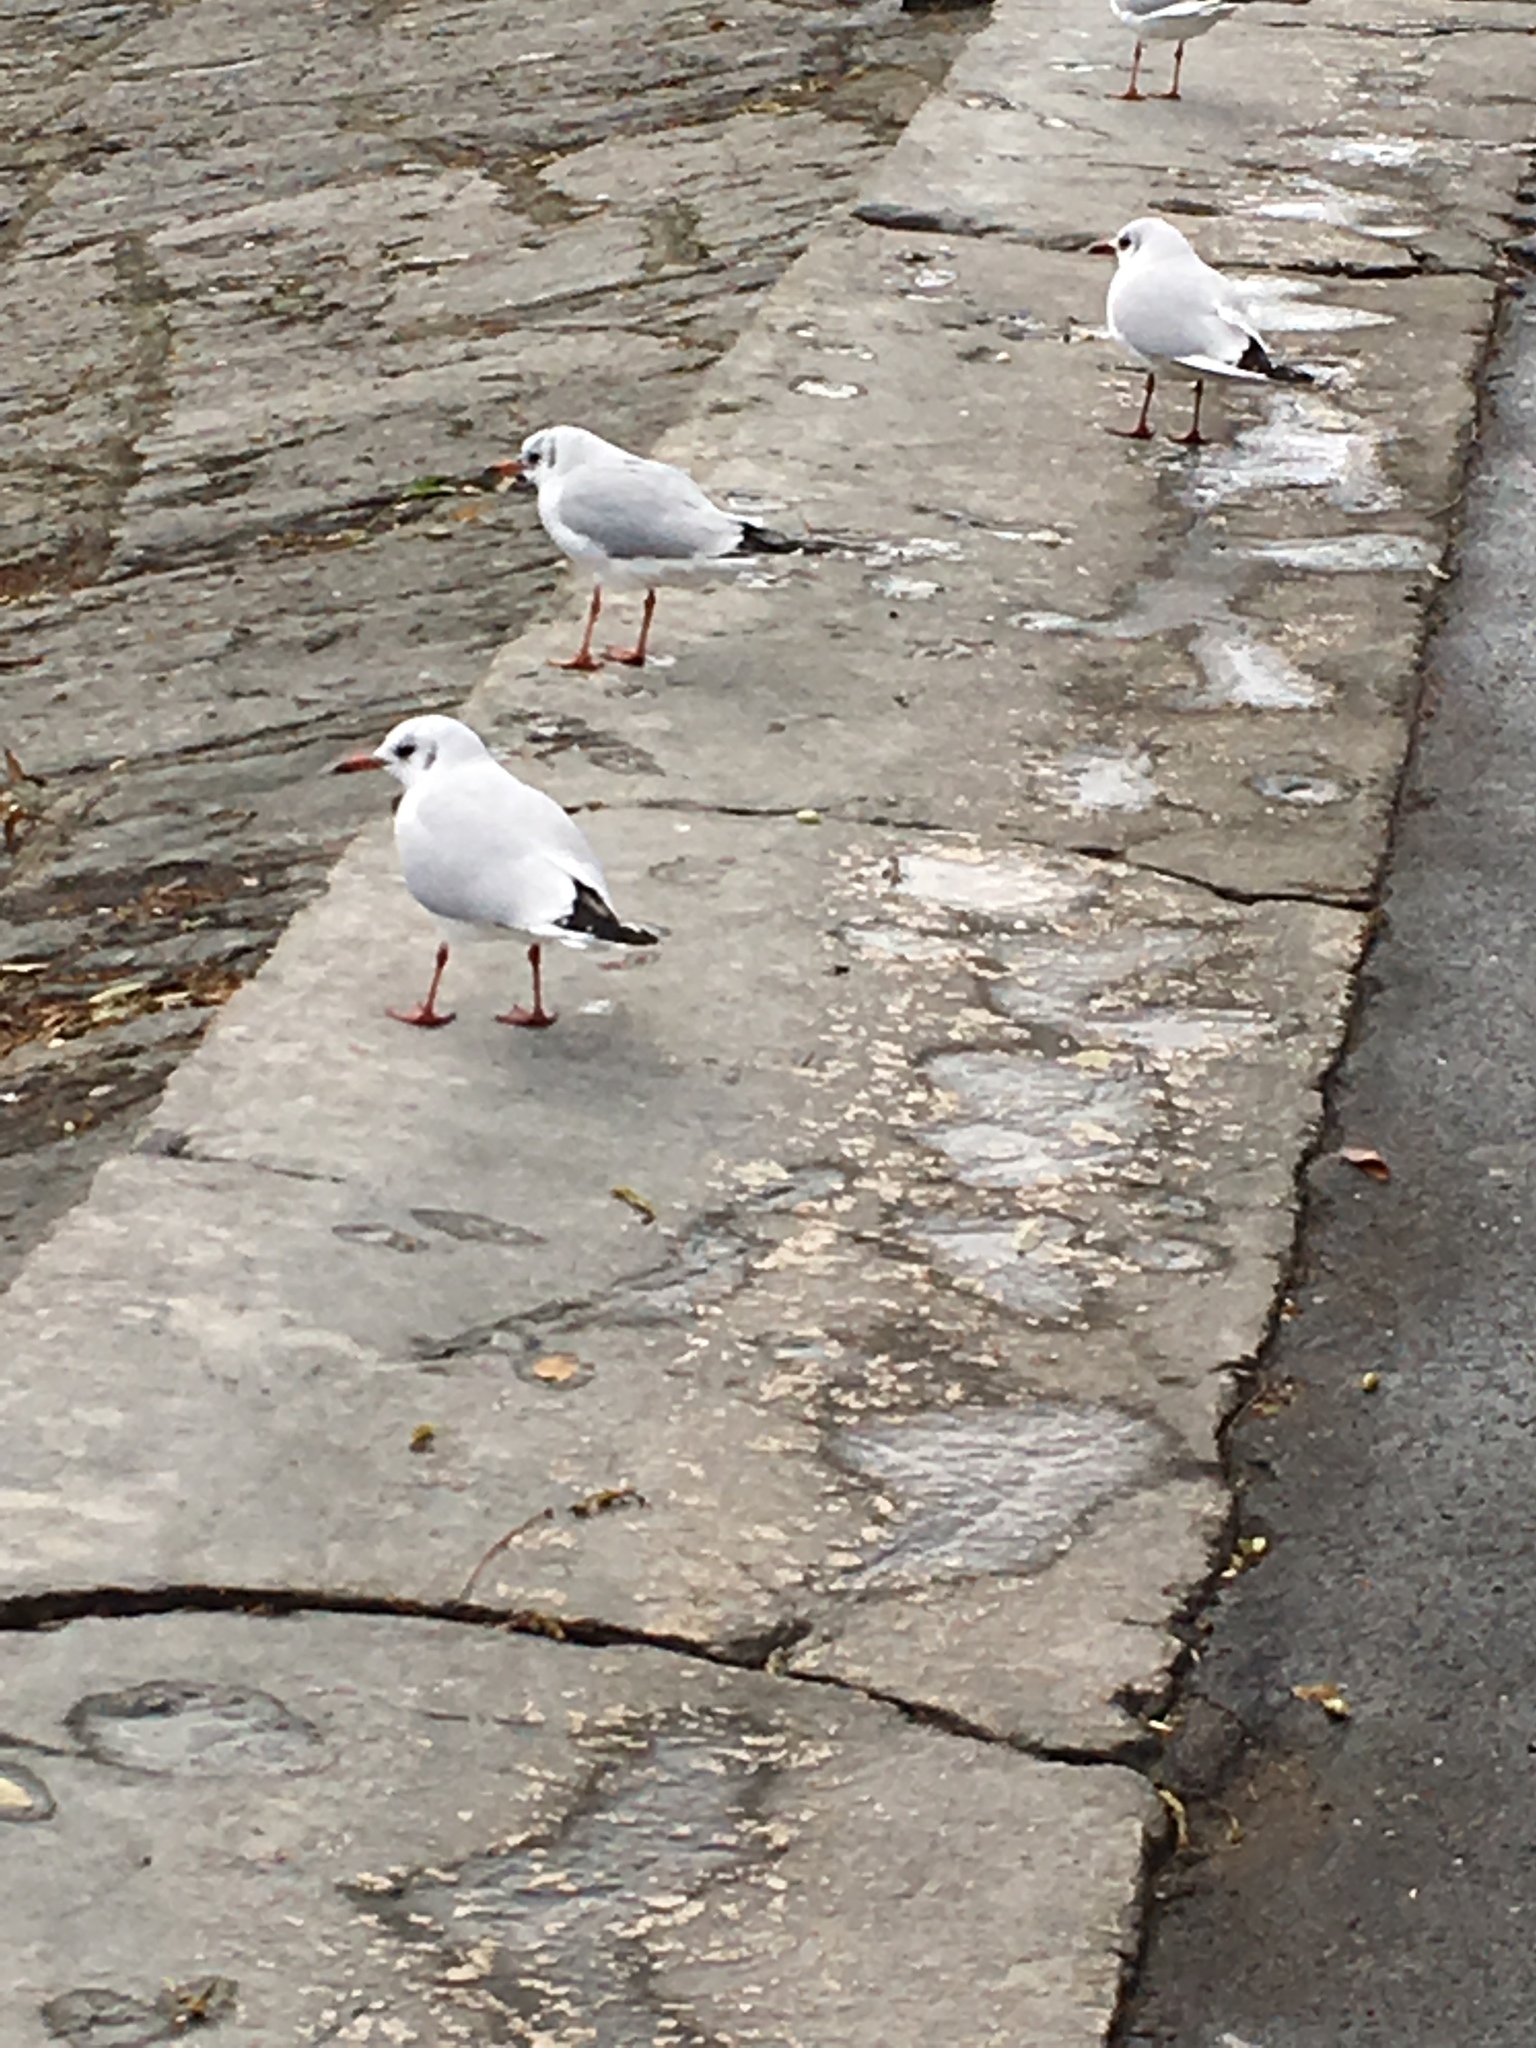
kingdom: Animalia
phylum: Chordata
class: Aves
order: Charadriiformes
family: Laridae
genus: Chroicocephalus
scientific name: Chroicocephalus ridibundus
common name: Black-headed gull
